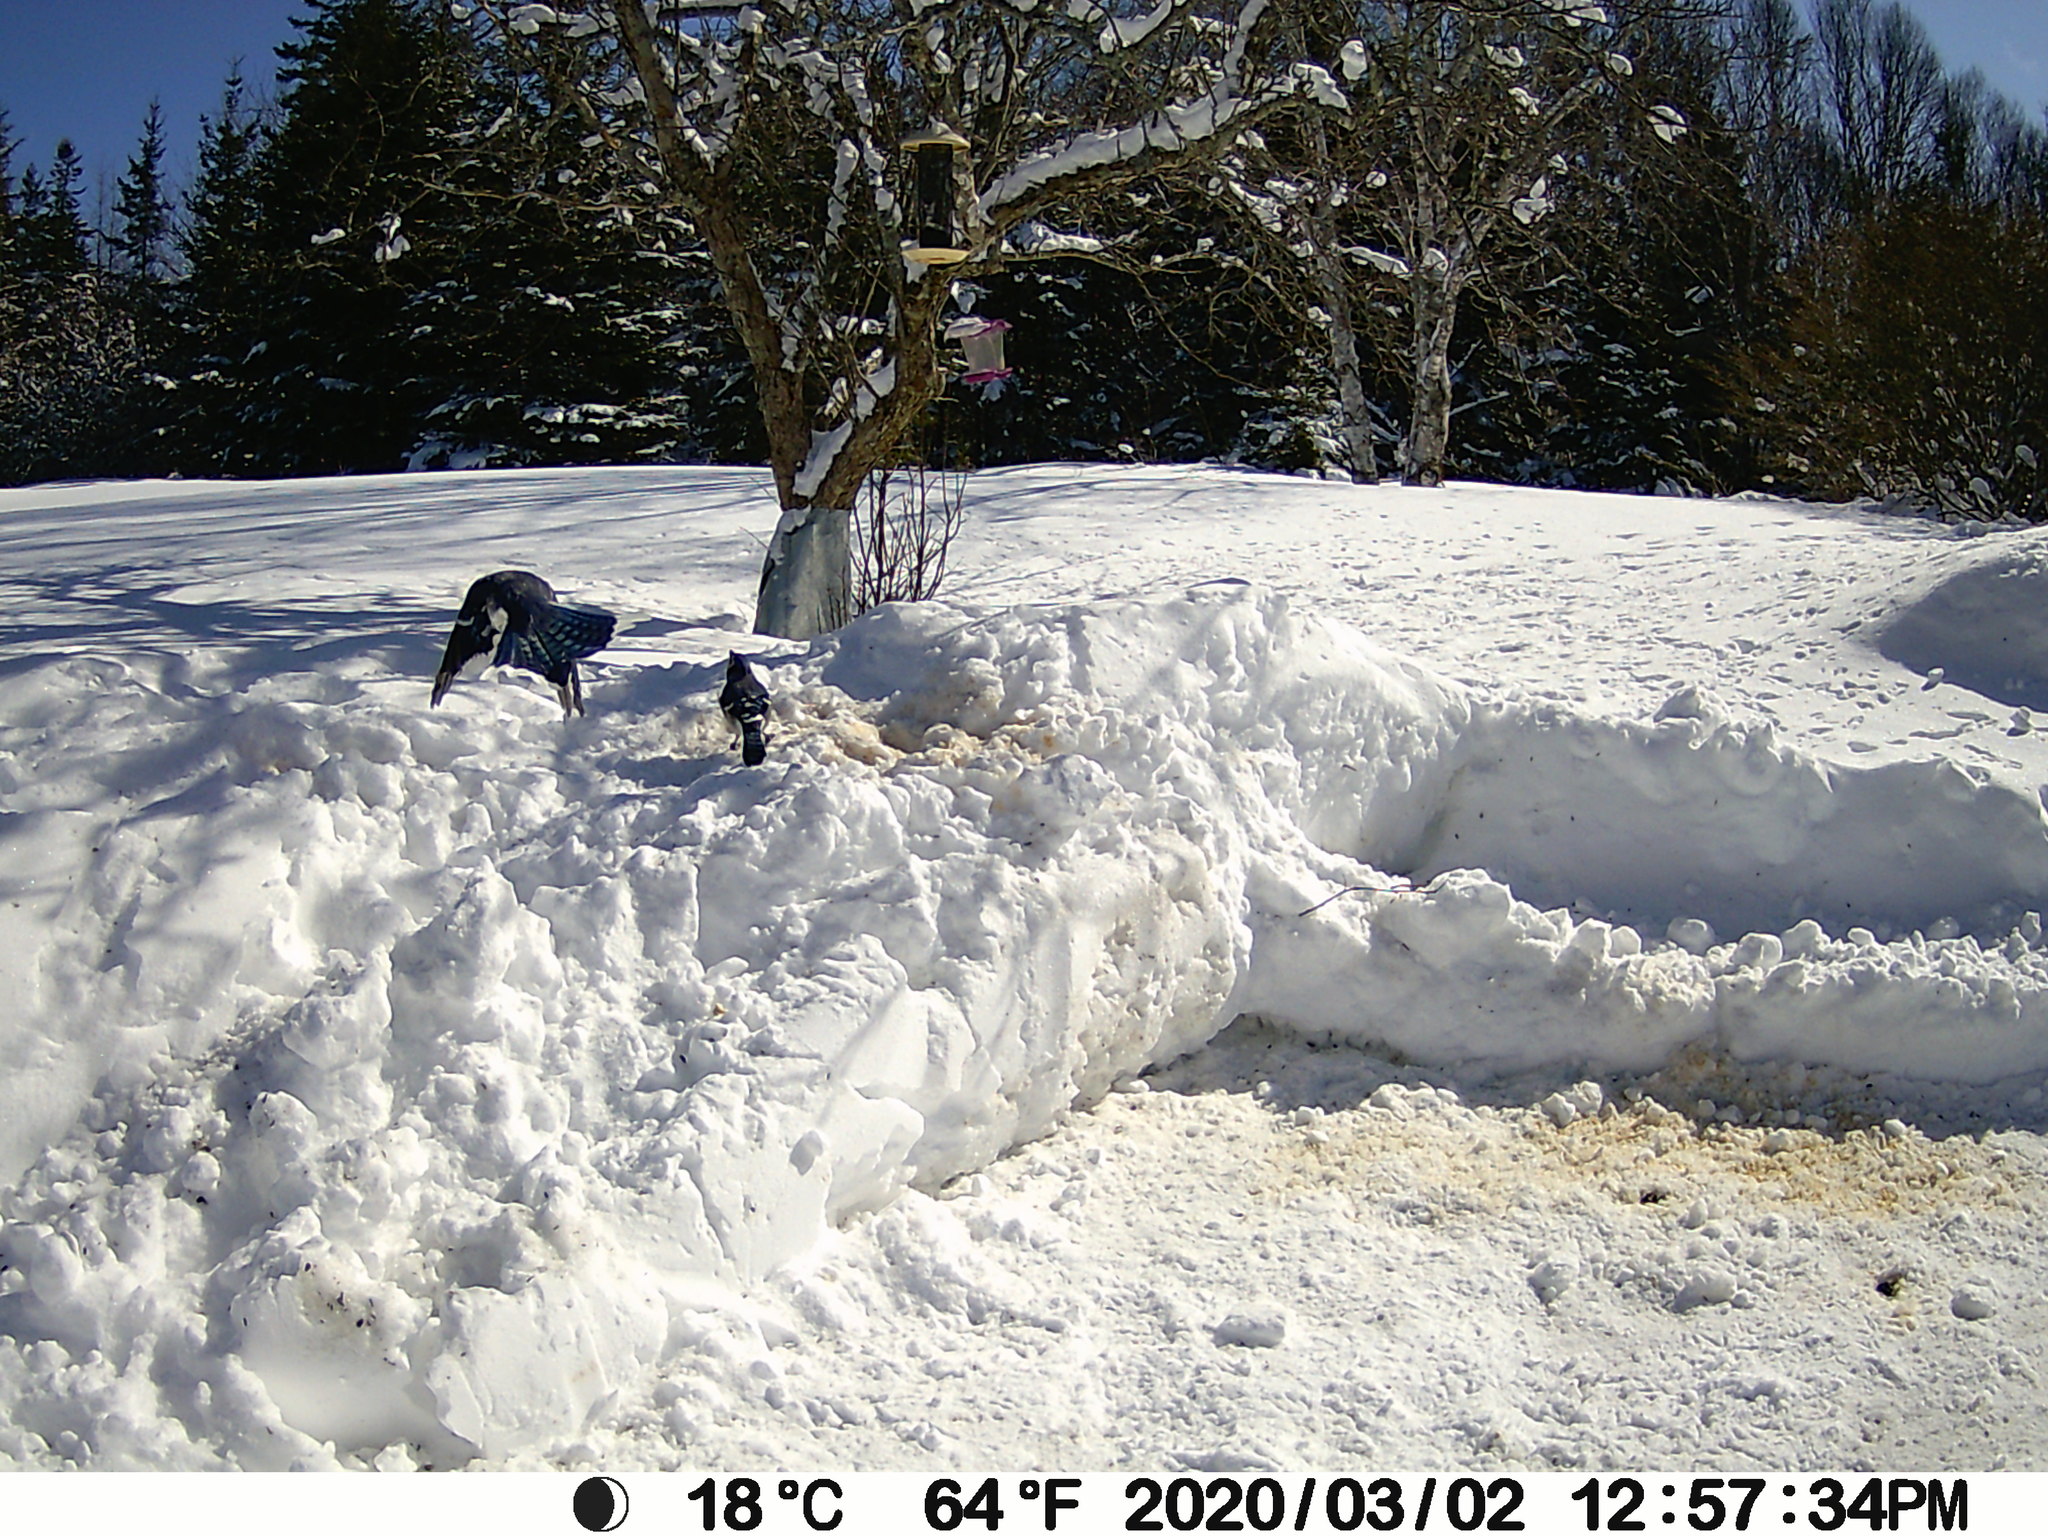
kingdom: Animalia
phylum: Chordata
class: Aves
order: Passeriformes
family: Corvidae
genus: Cyanocitta
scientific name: Cyanocitta cristata
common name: Blue jay
